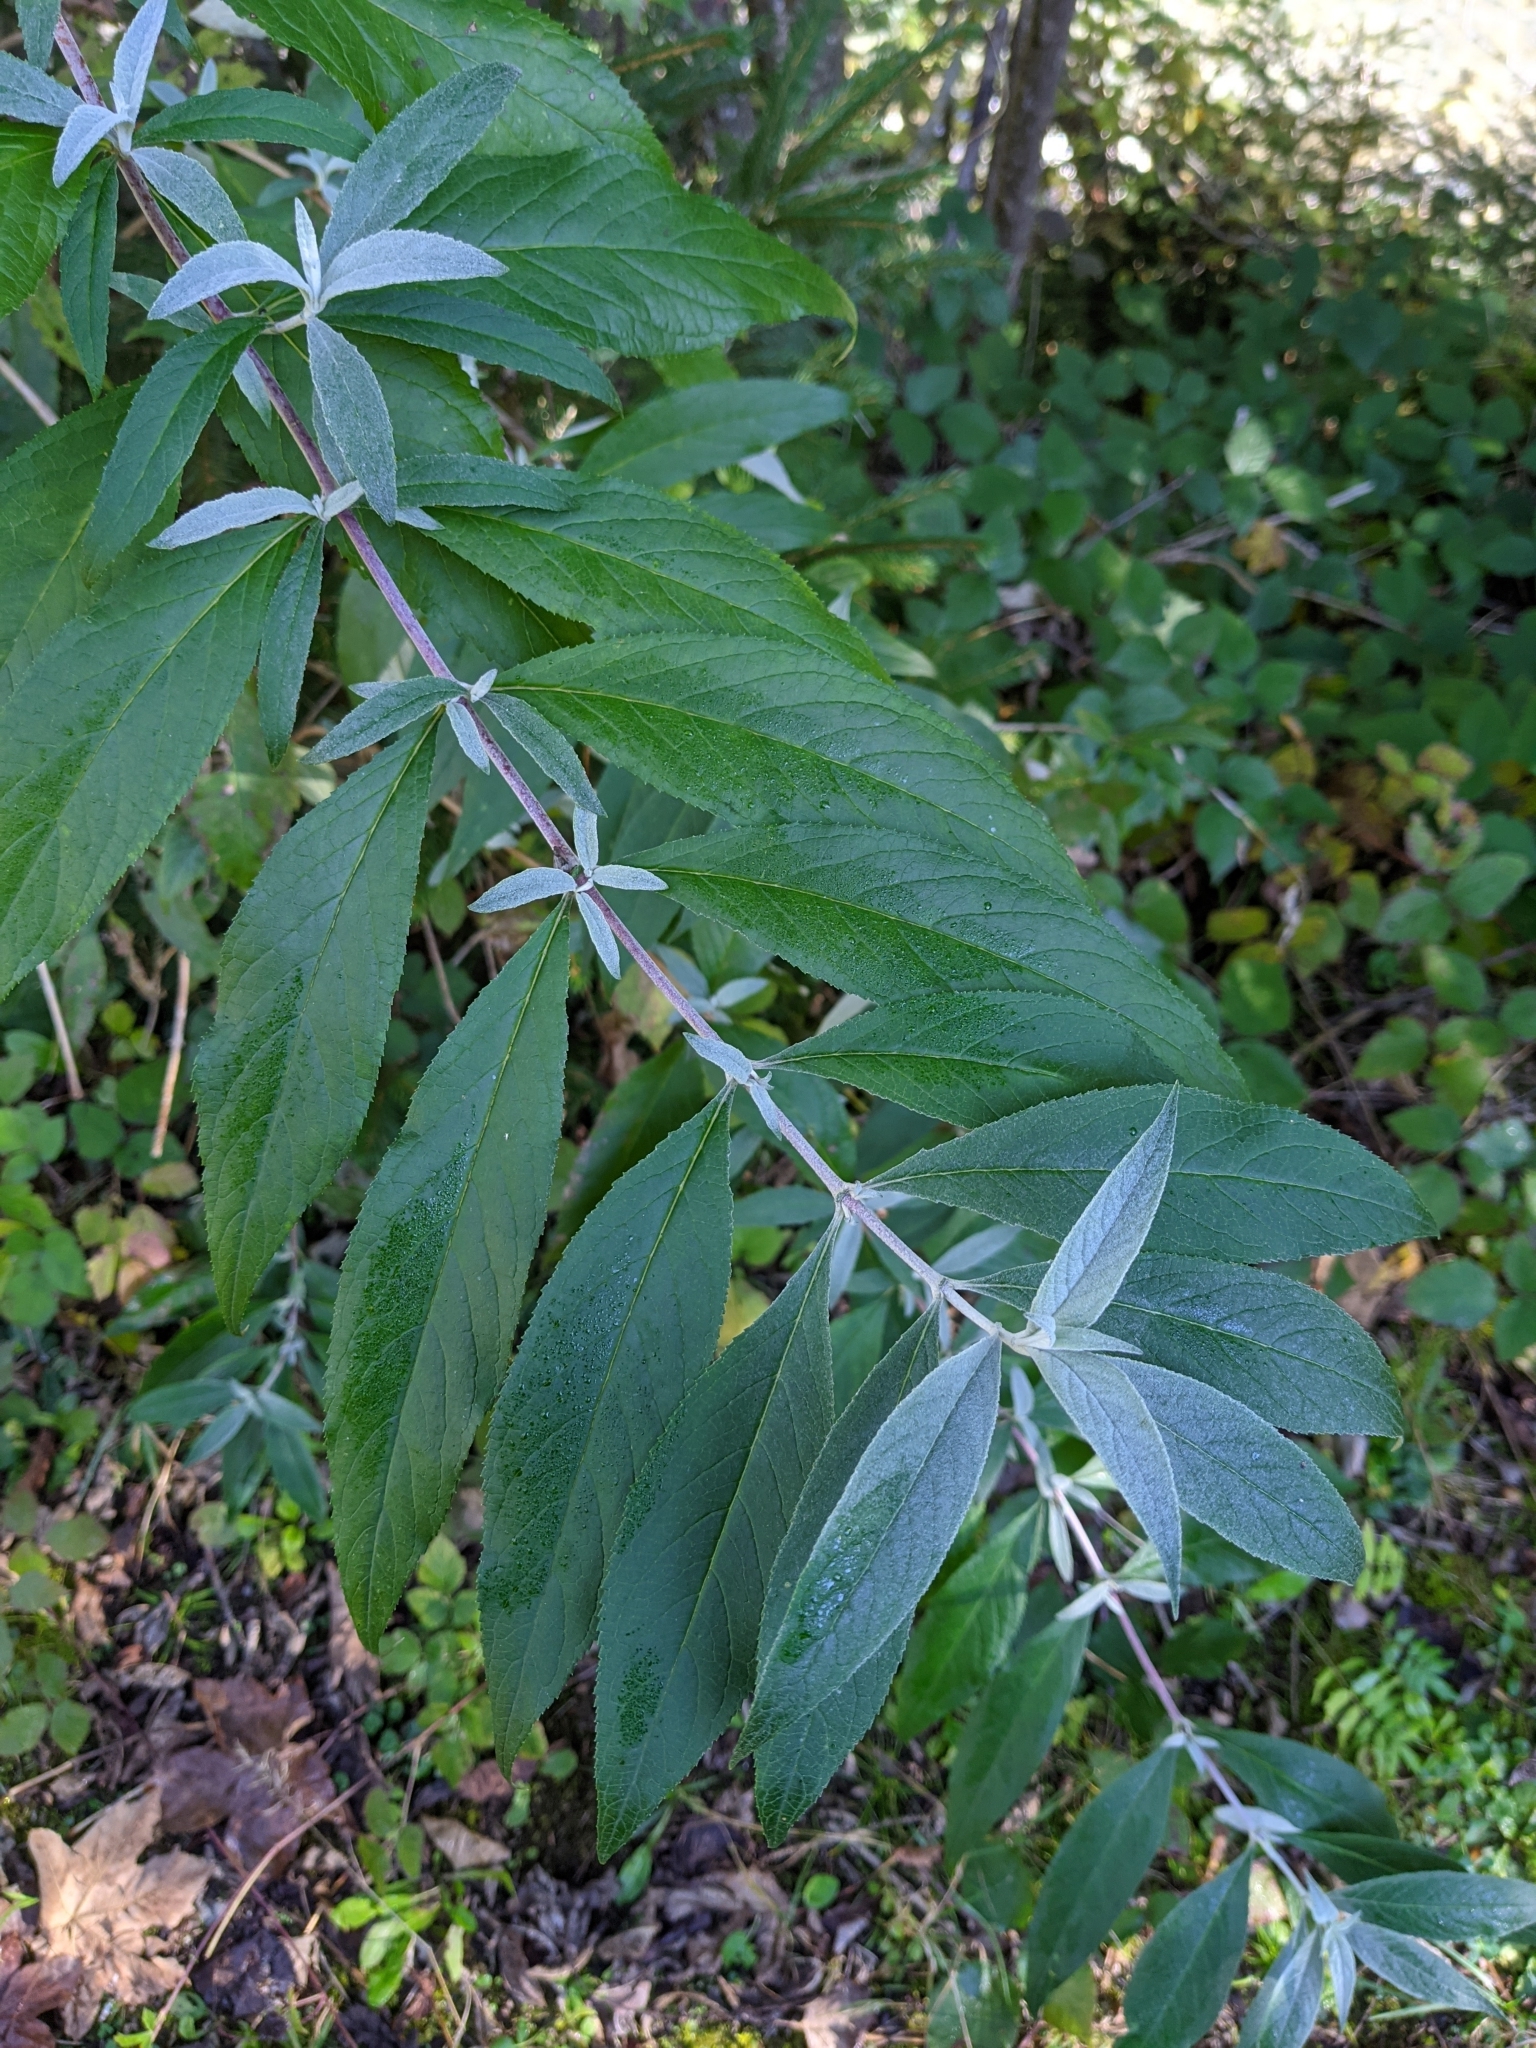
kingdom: Plantae
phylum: Tracheophyta
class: Magnoliopsida
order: Lamiales
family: Scrophulariaceae
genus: Buddleja
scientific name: Buddleja davidii
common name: Butterfly-bush
